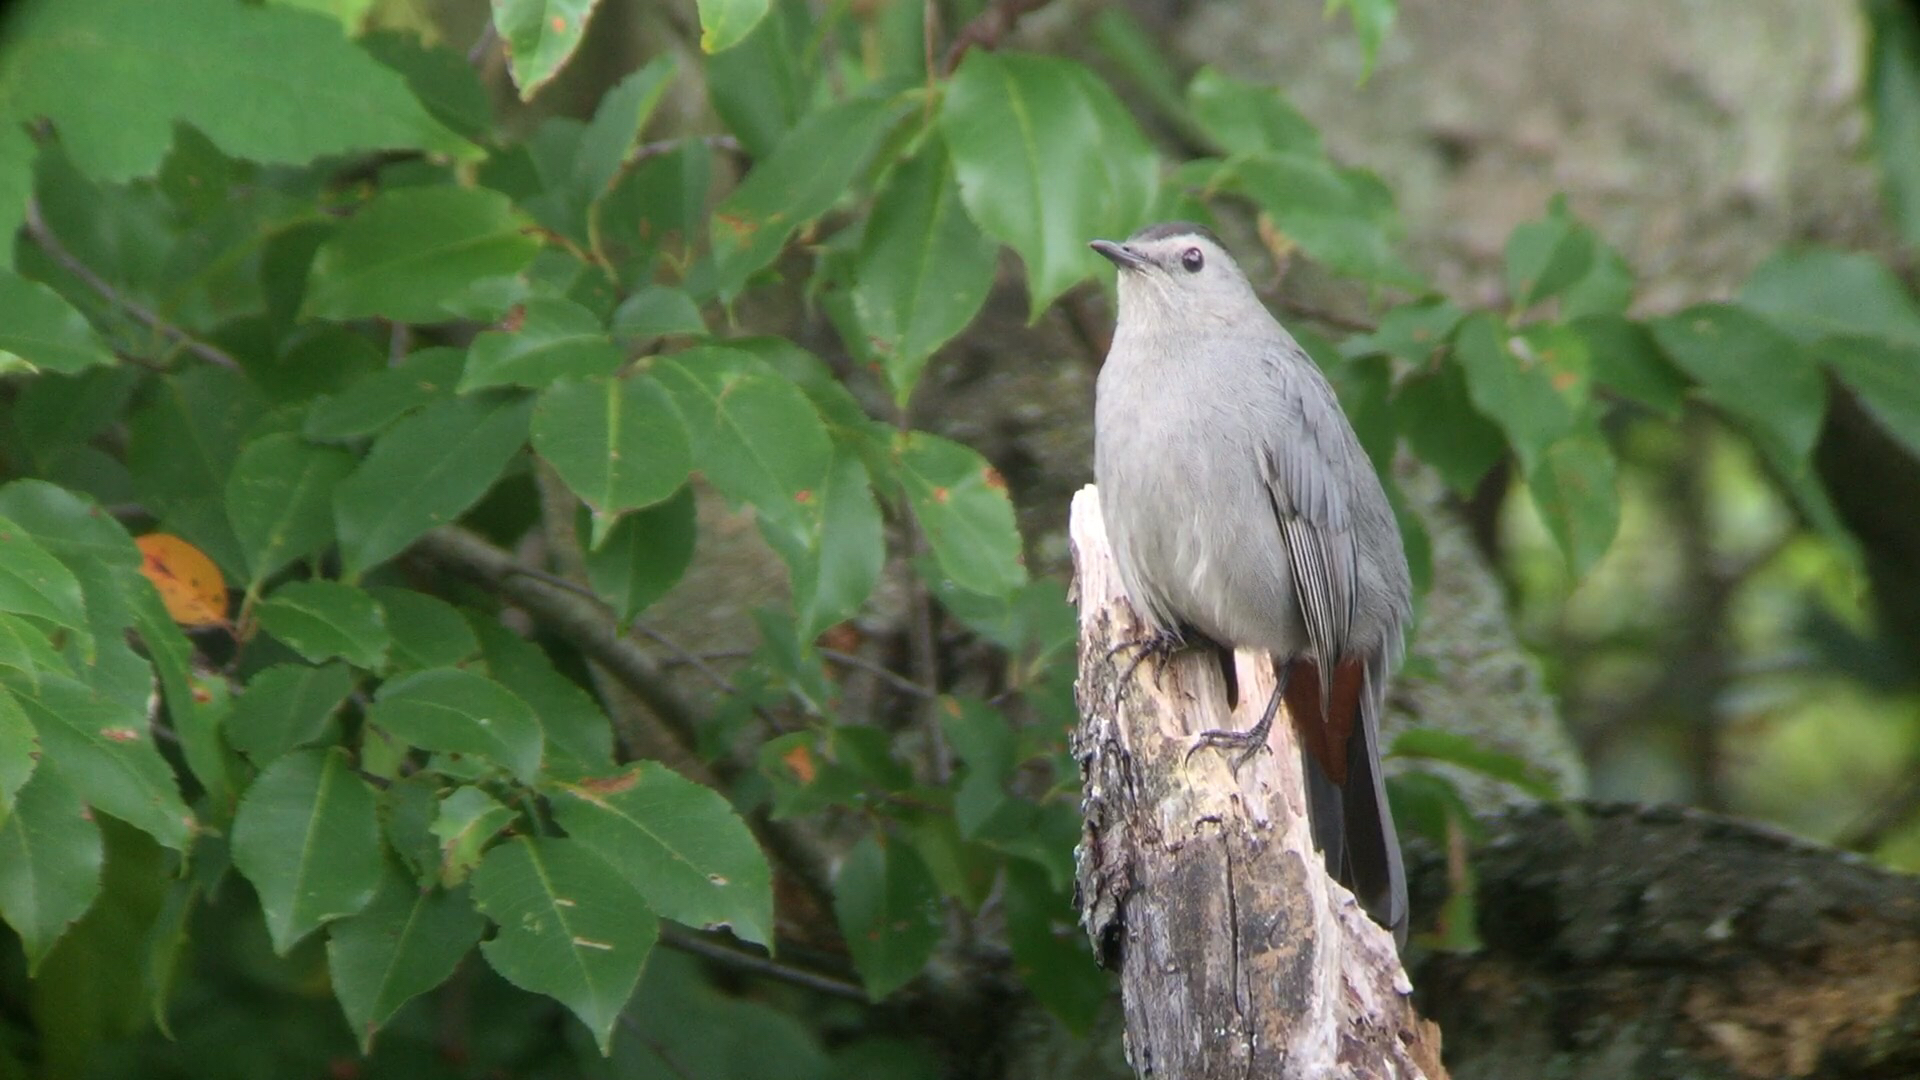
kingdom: Animalia
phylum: Chordata
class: Aves
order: Passeriformes
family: Mimidae
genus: Dumetella
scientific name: Dumetella carolinensis
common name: Gray catbird
